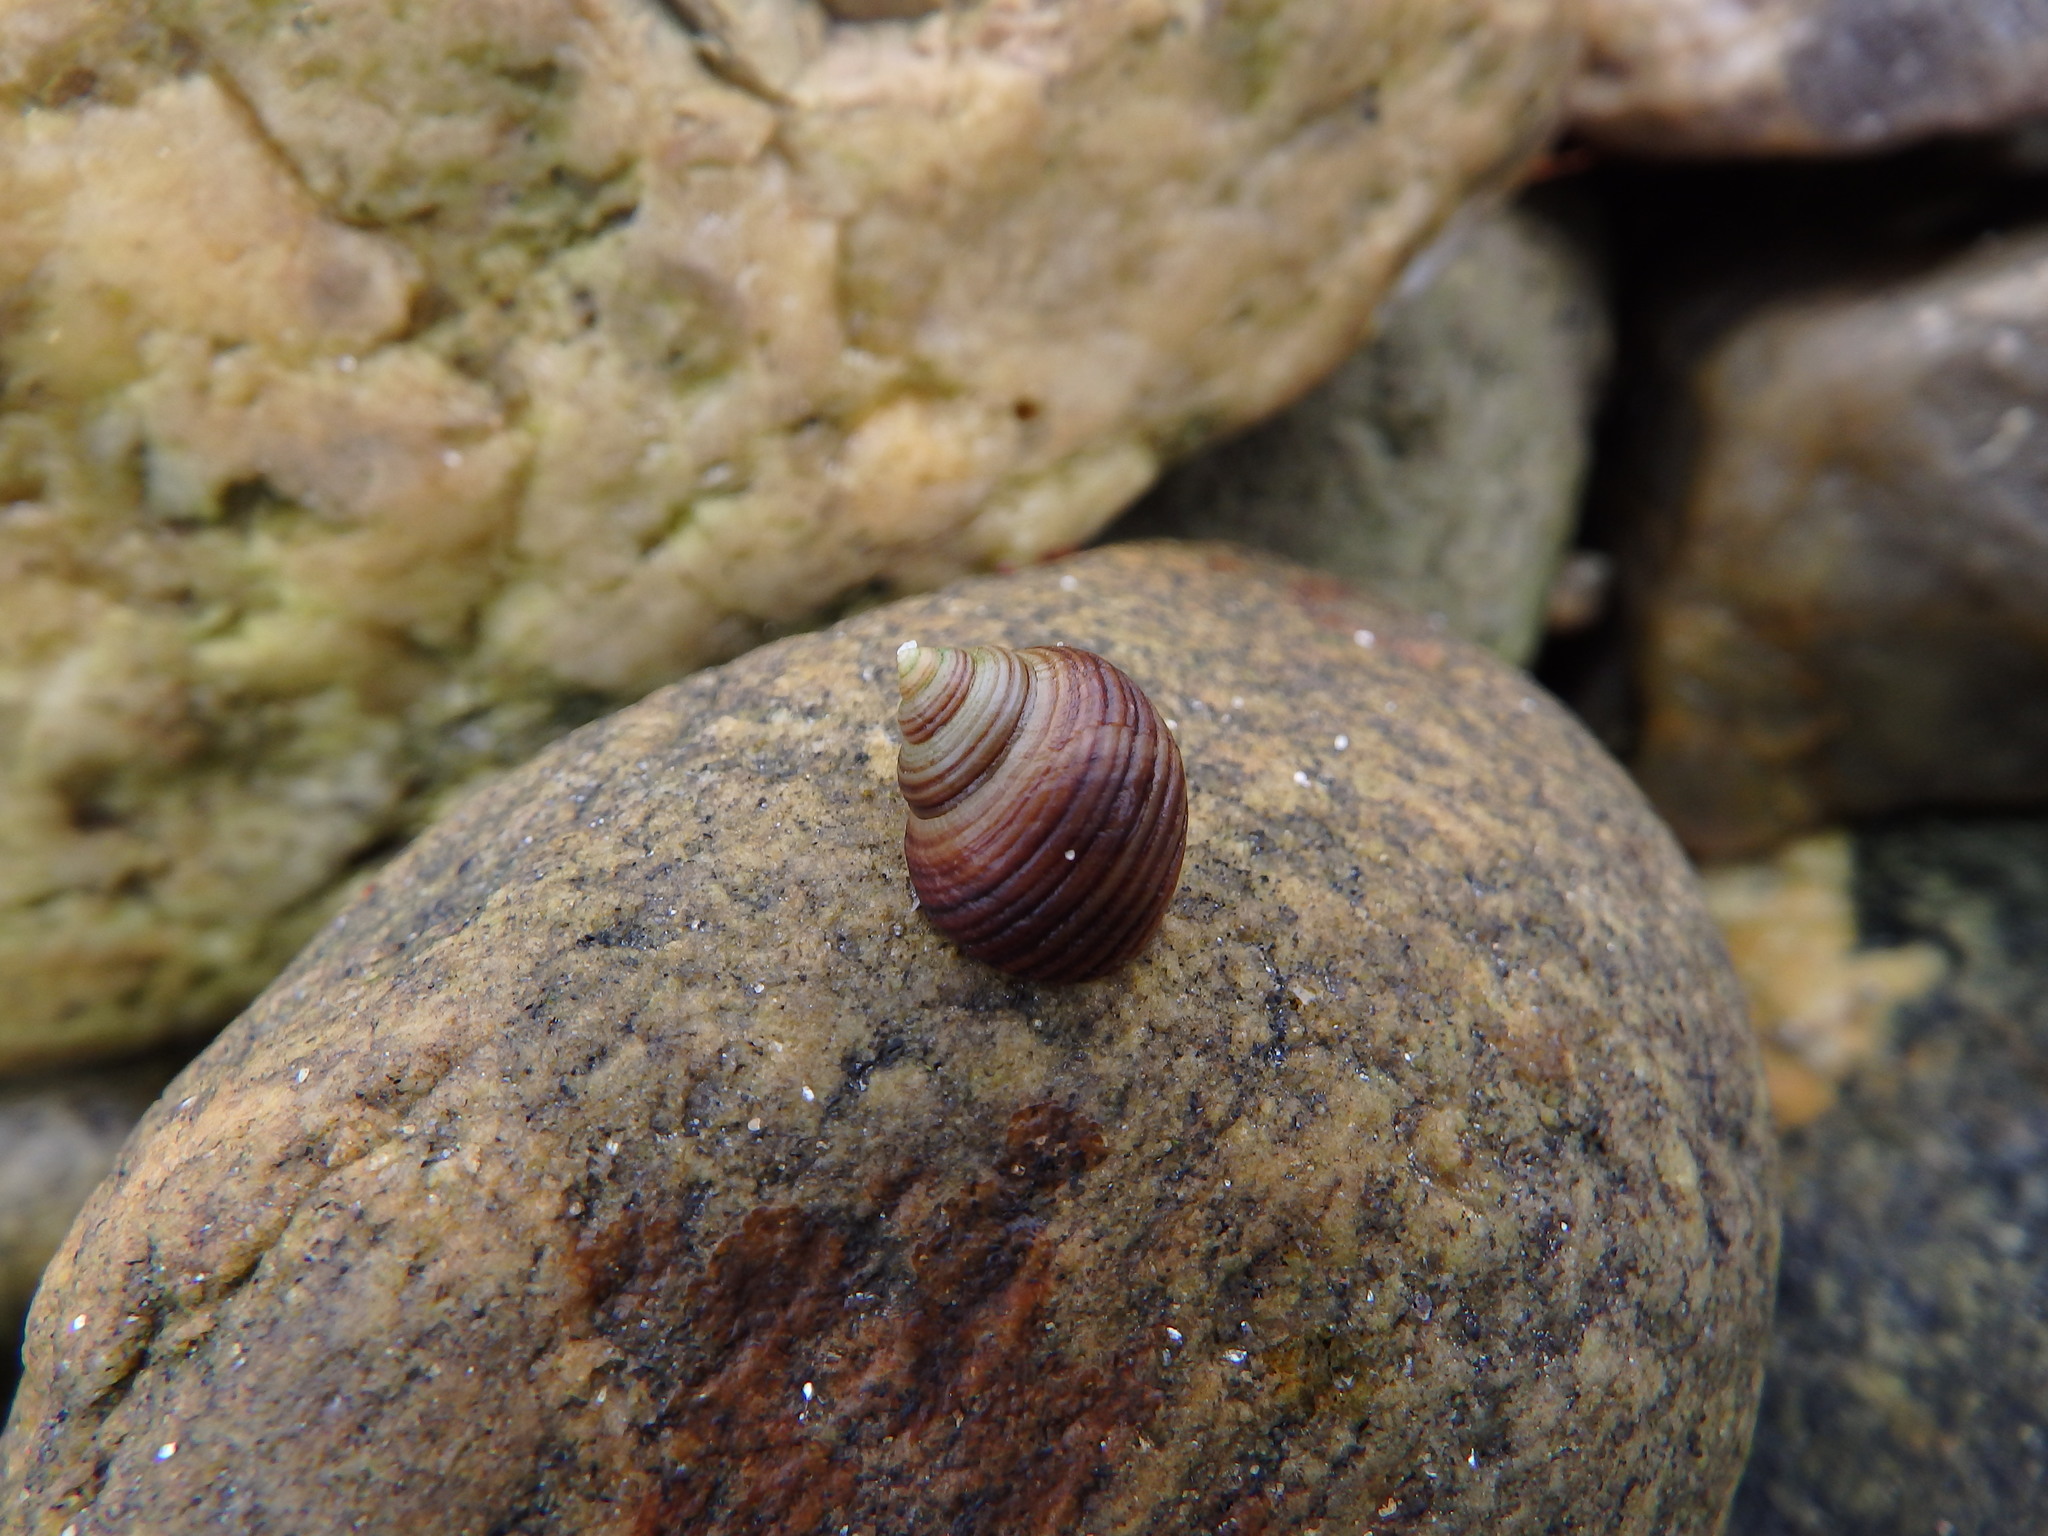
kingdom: Animalia
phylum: Mollusca
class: Gastropoda
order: Littorinimorpha
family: Littorinidae
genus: Littorina
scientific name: Littorina compressa
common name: Black-lined periwinkle
